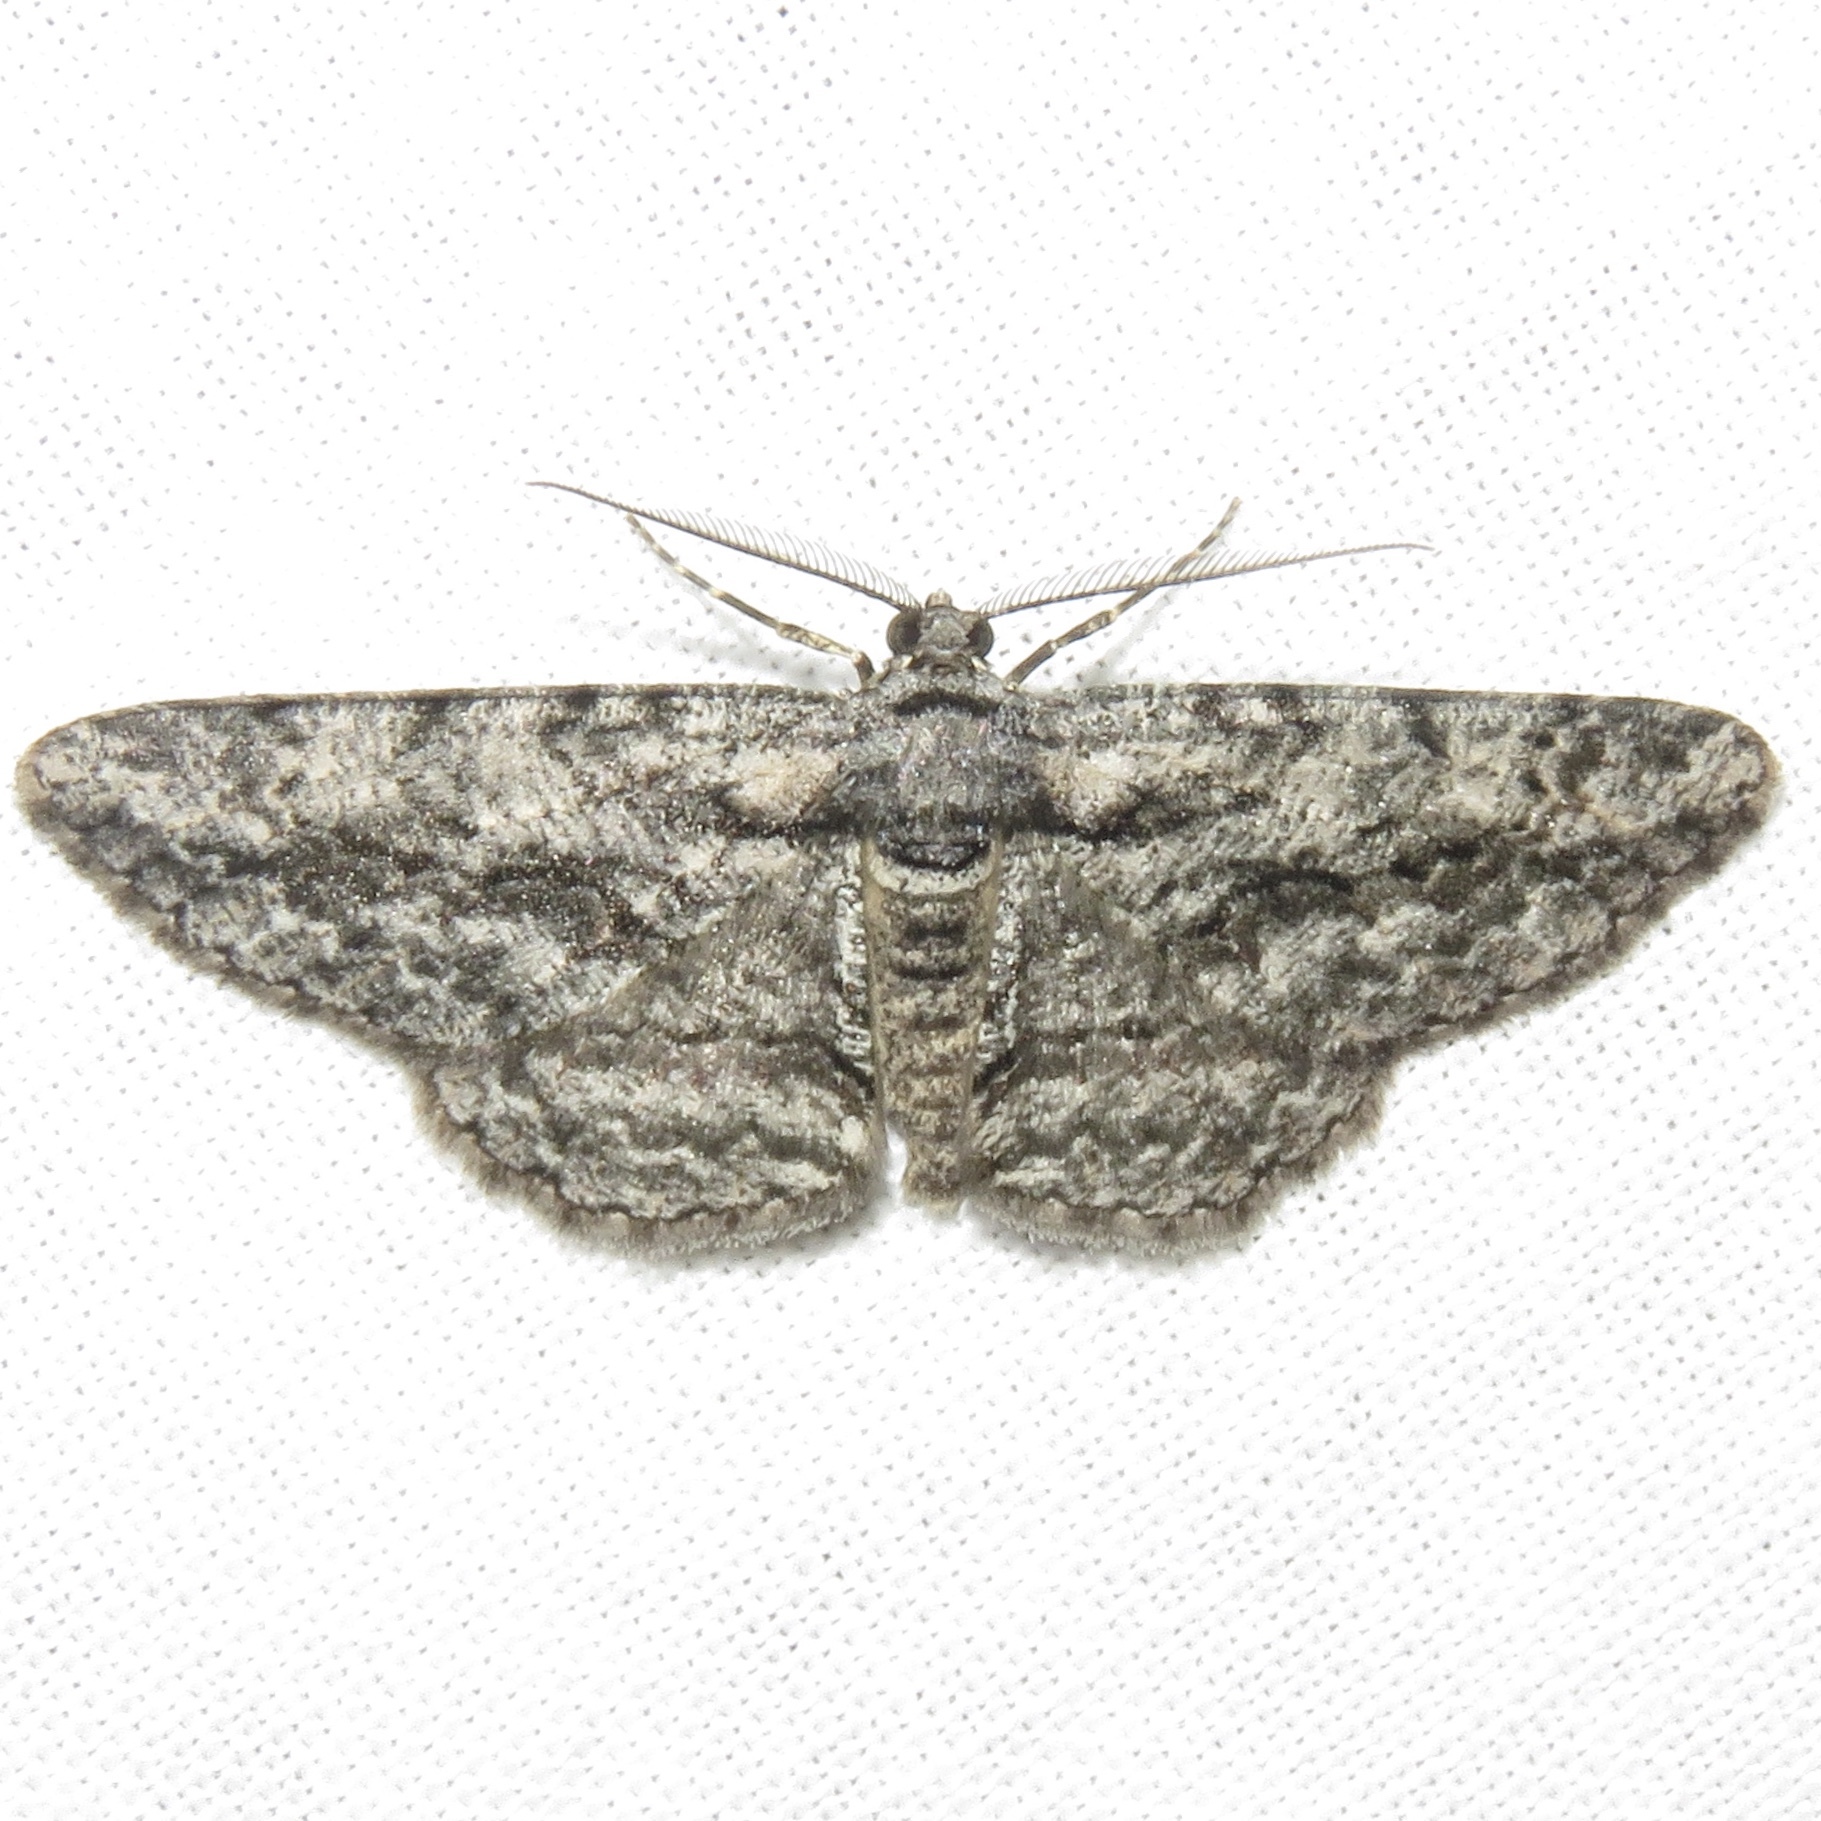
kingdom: Animalia
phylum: Arthropoda
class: Insecta
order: Lepidoptera
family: Geometridae
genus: Anavitrinella
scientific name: Anavitrinella pampinaria
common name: Common gray
